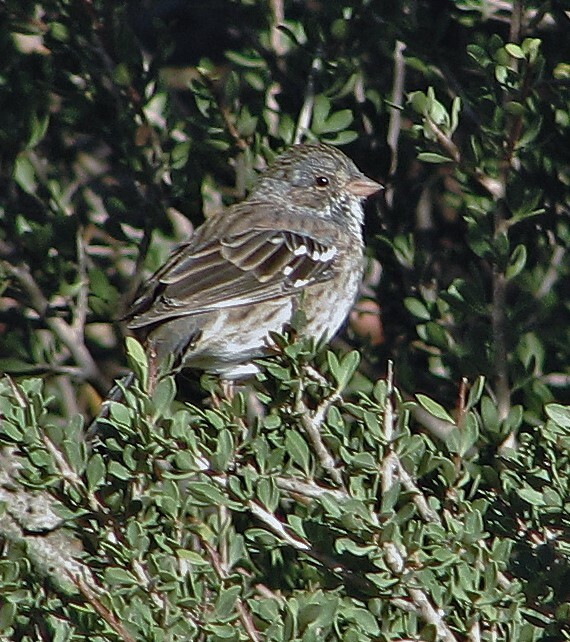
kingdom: Animalia
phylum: Chordata
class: Aves
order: Passeriformes
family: Thraupidae
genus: Rhopospina
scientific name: Rhopospina fruticeti
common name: Mourning sierra finch
